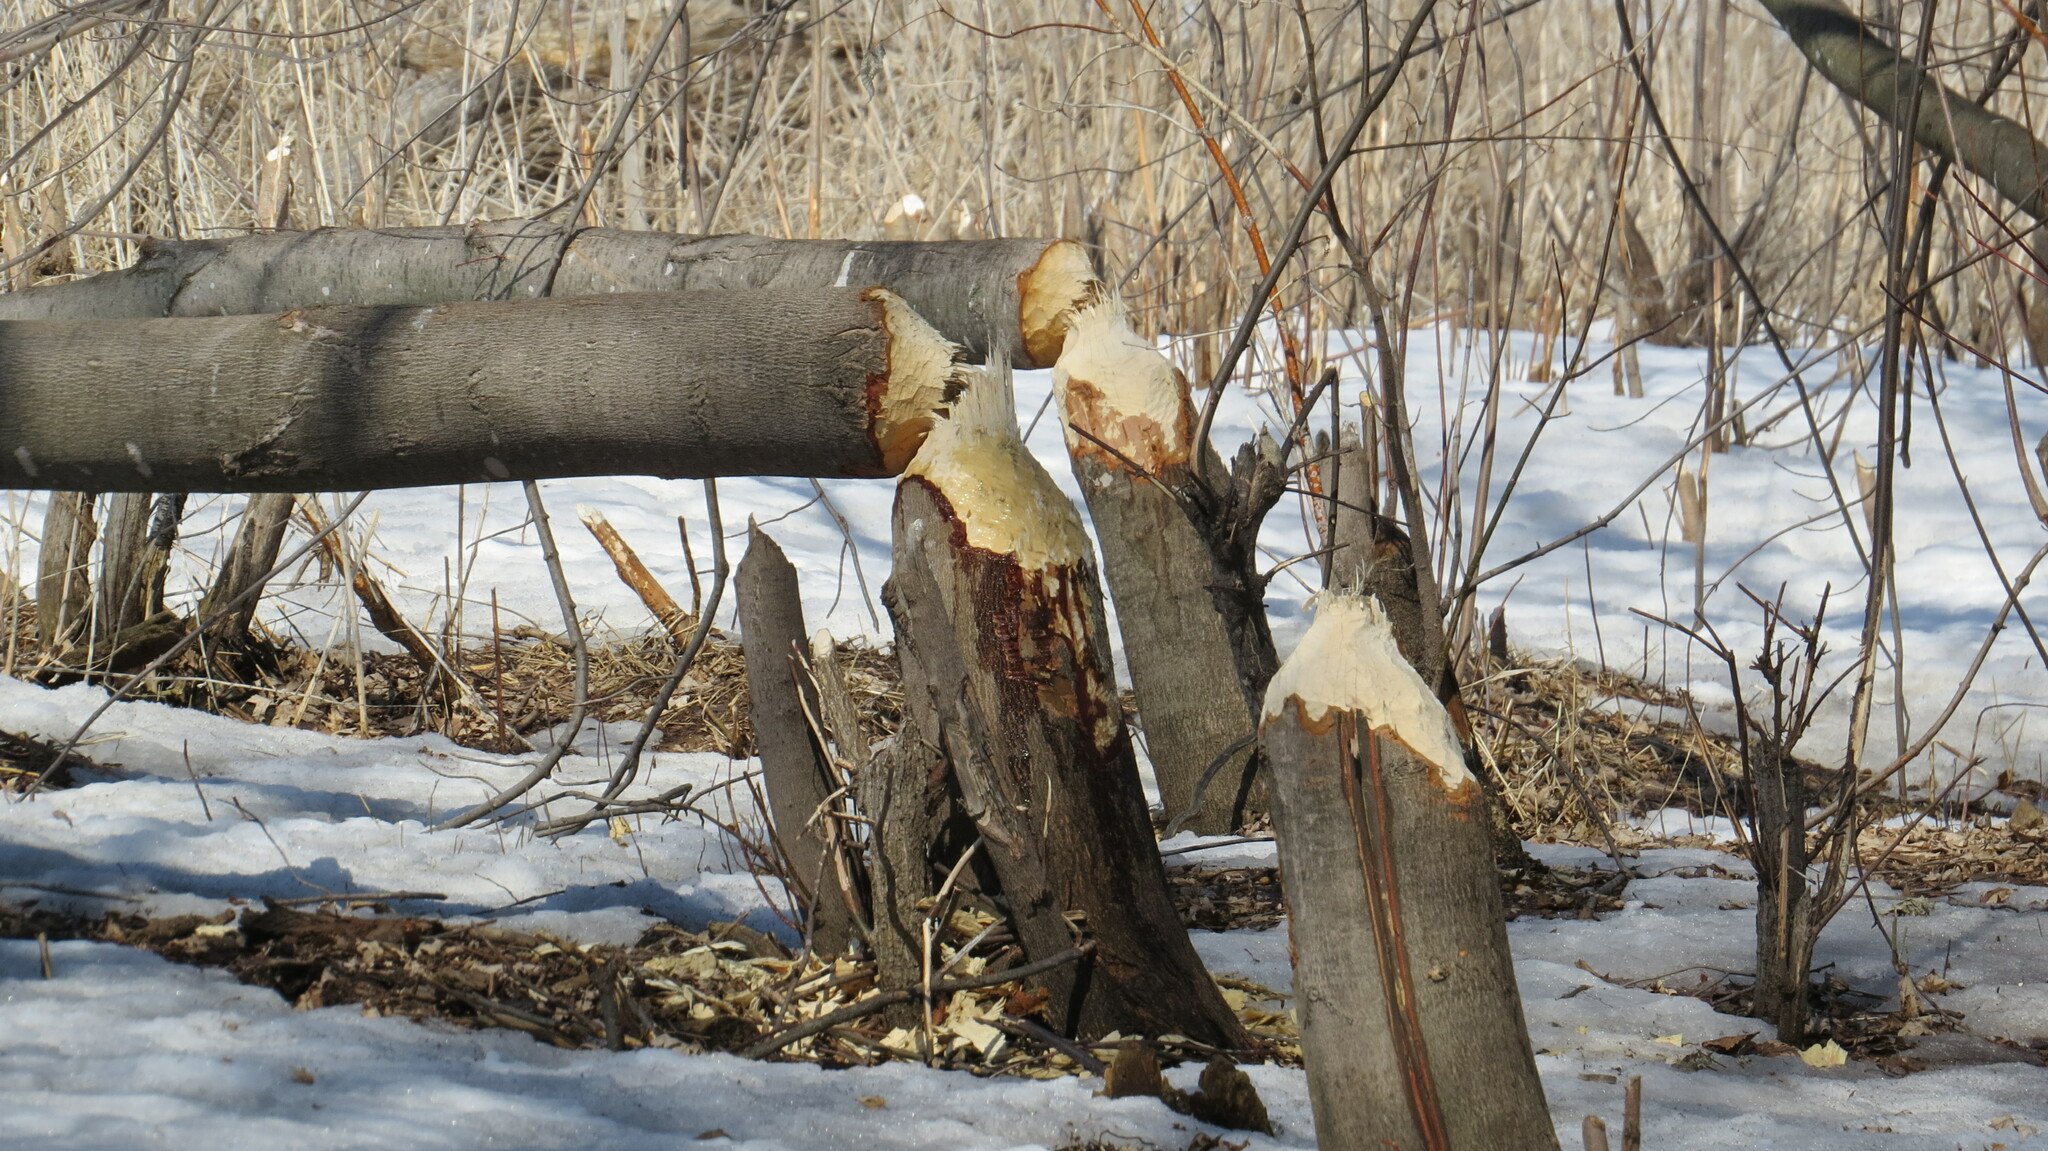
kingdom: Animalia
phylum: Chordata
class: Mammalia
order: Rodentia
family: Castoridae
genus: Castor
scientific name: Castor canadensis
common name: American beaver
